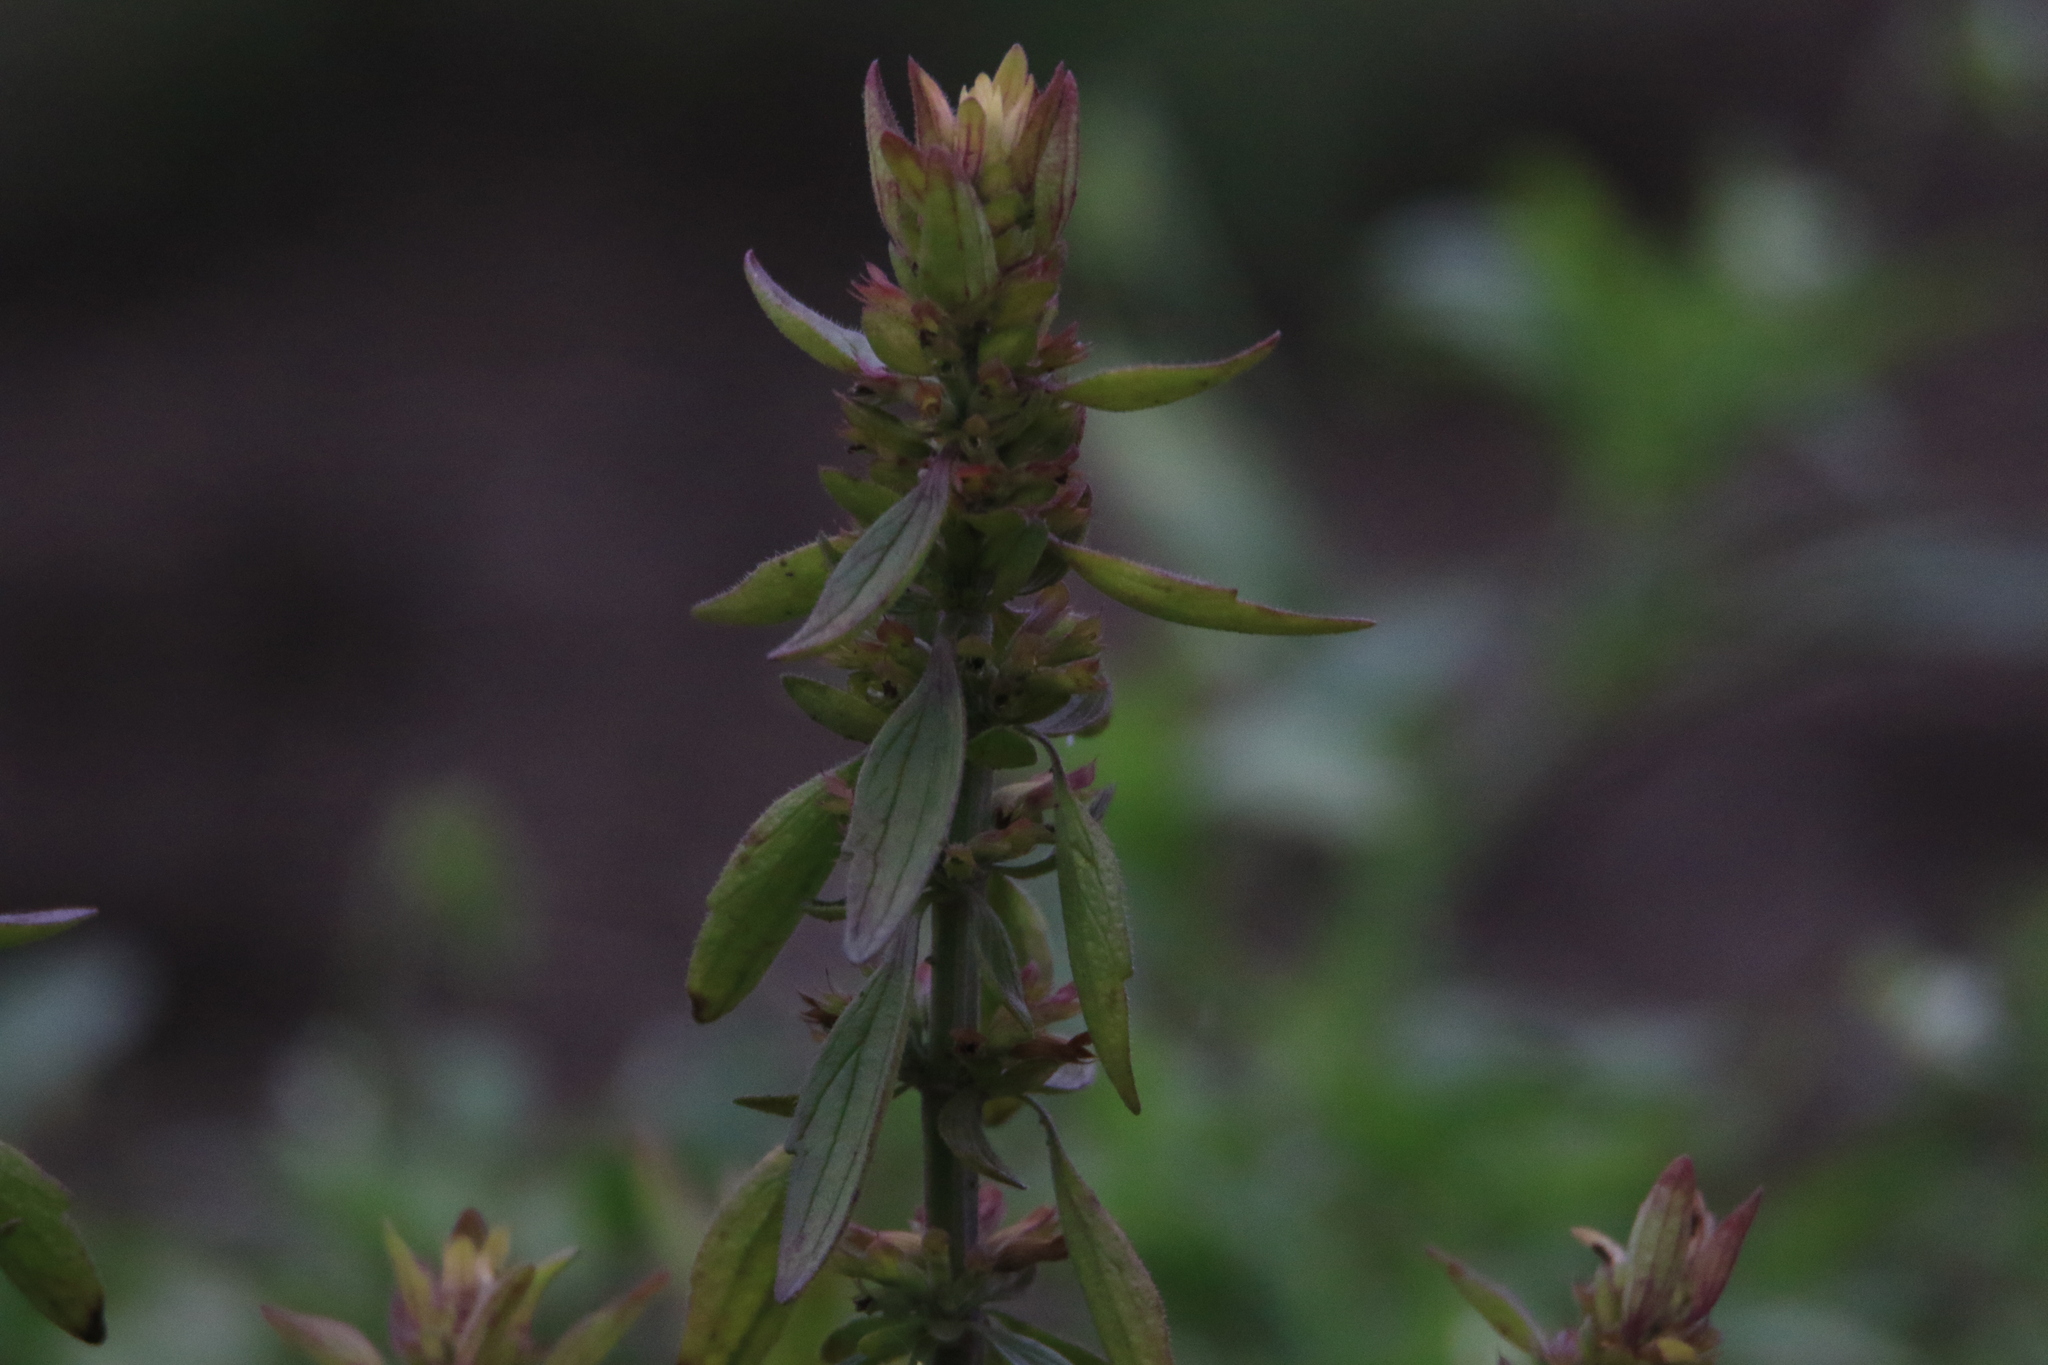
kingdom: Plantae
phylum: Tracheophyta
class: Magnoliopsida
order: Lamiales
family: Lamiaceae
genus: Dracocephalum
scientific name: Dracocephalum thymiflorum
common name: Thymeleaf dragonhead
